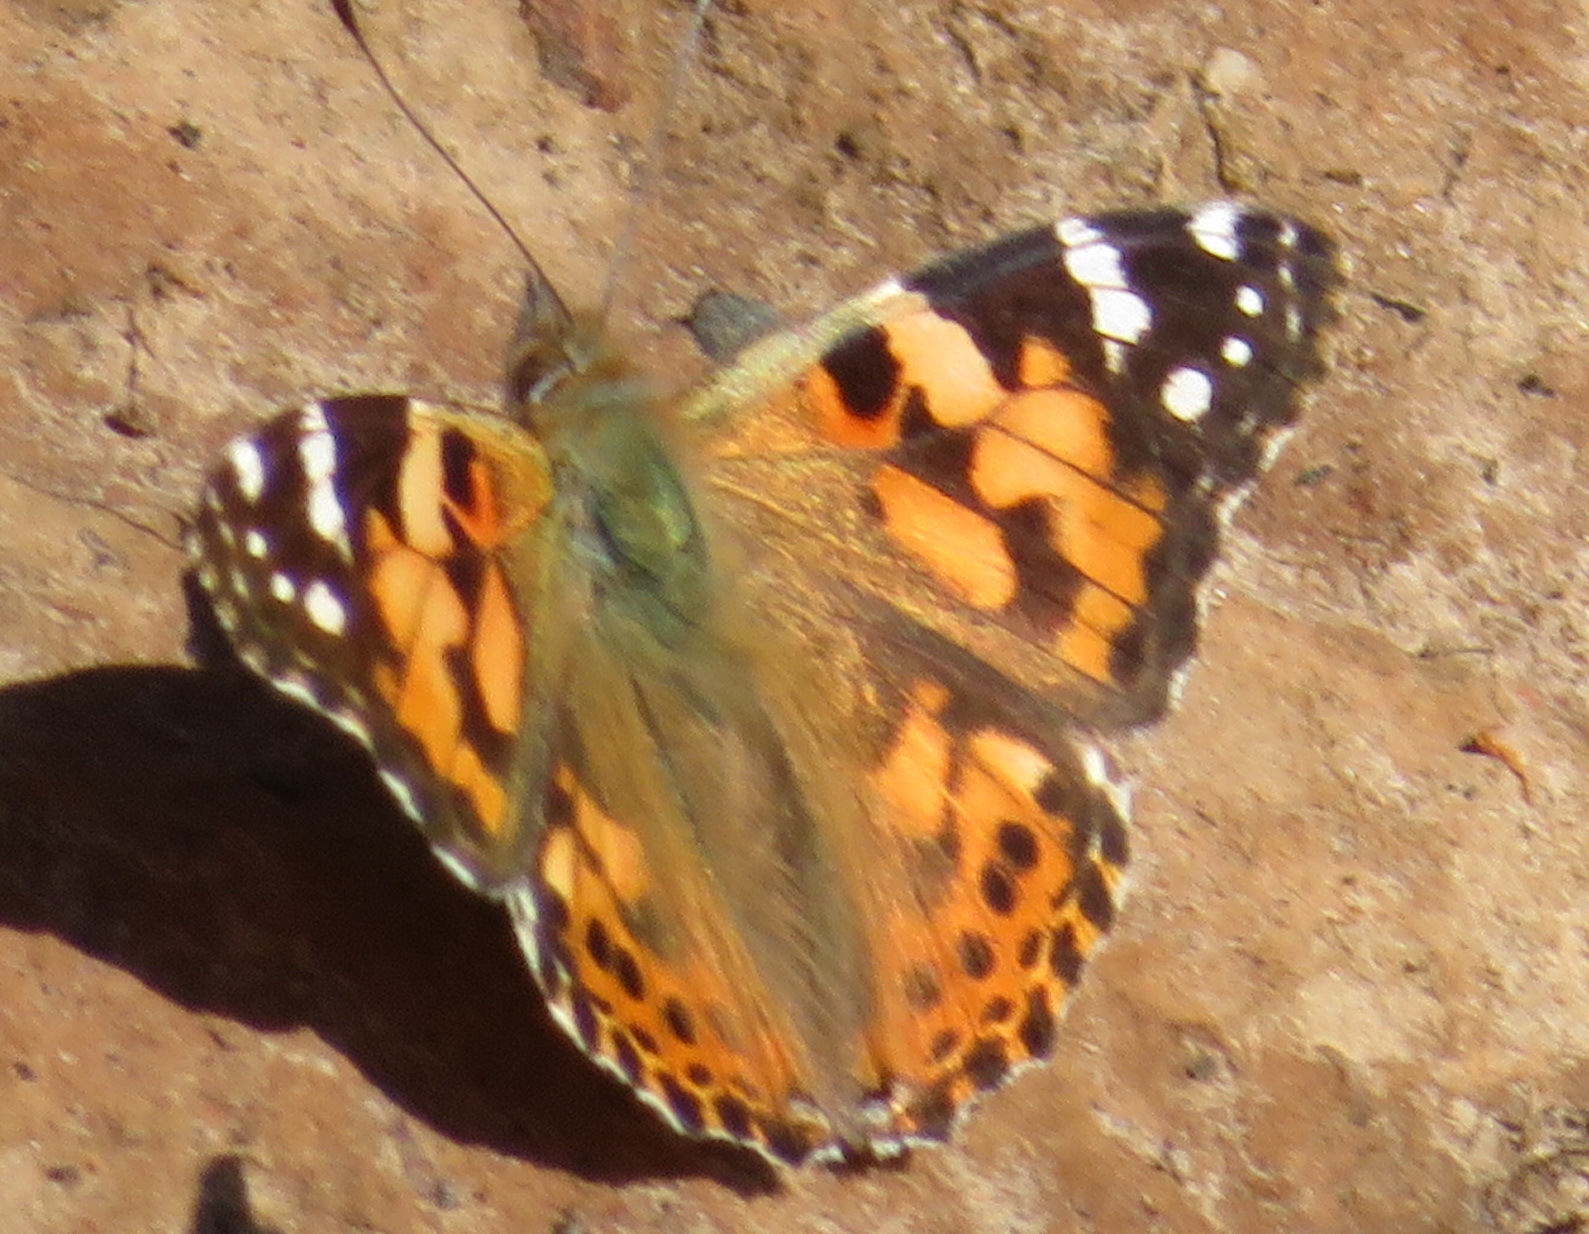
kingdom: Animalia
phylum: Arthropoda
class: Insecta
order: Lepidoptera
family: Nymphalidae
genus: Vanessa
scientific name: Vanessa cardui
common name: Painted lady
